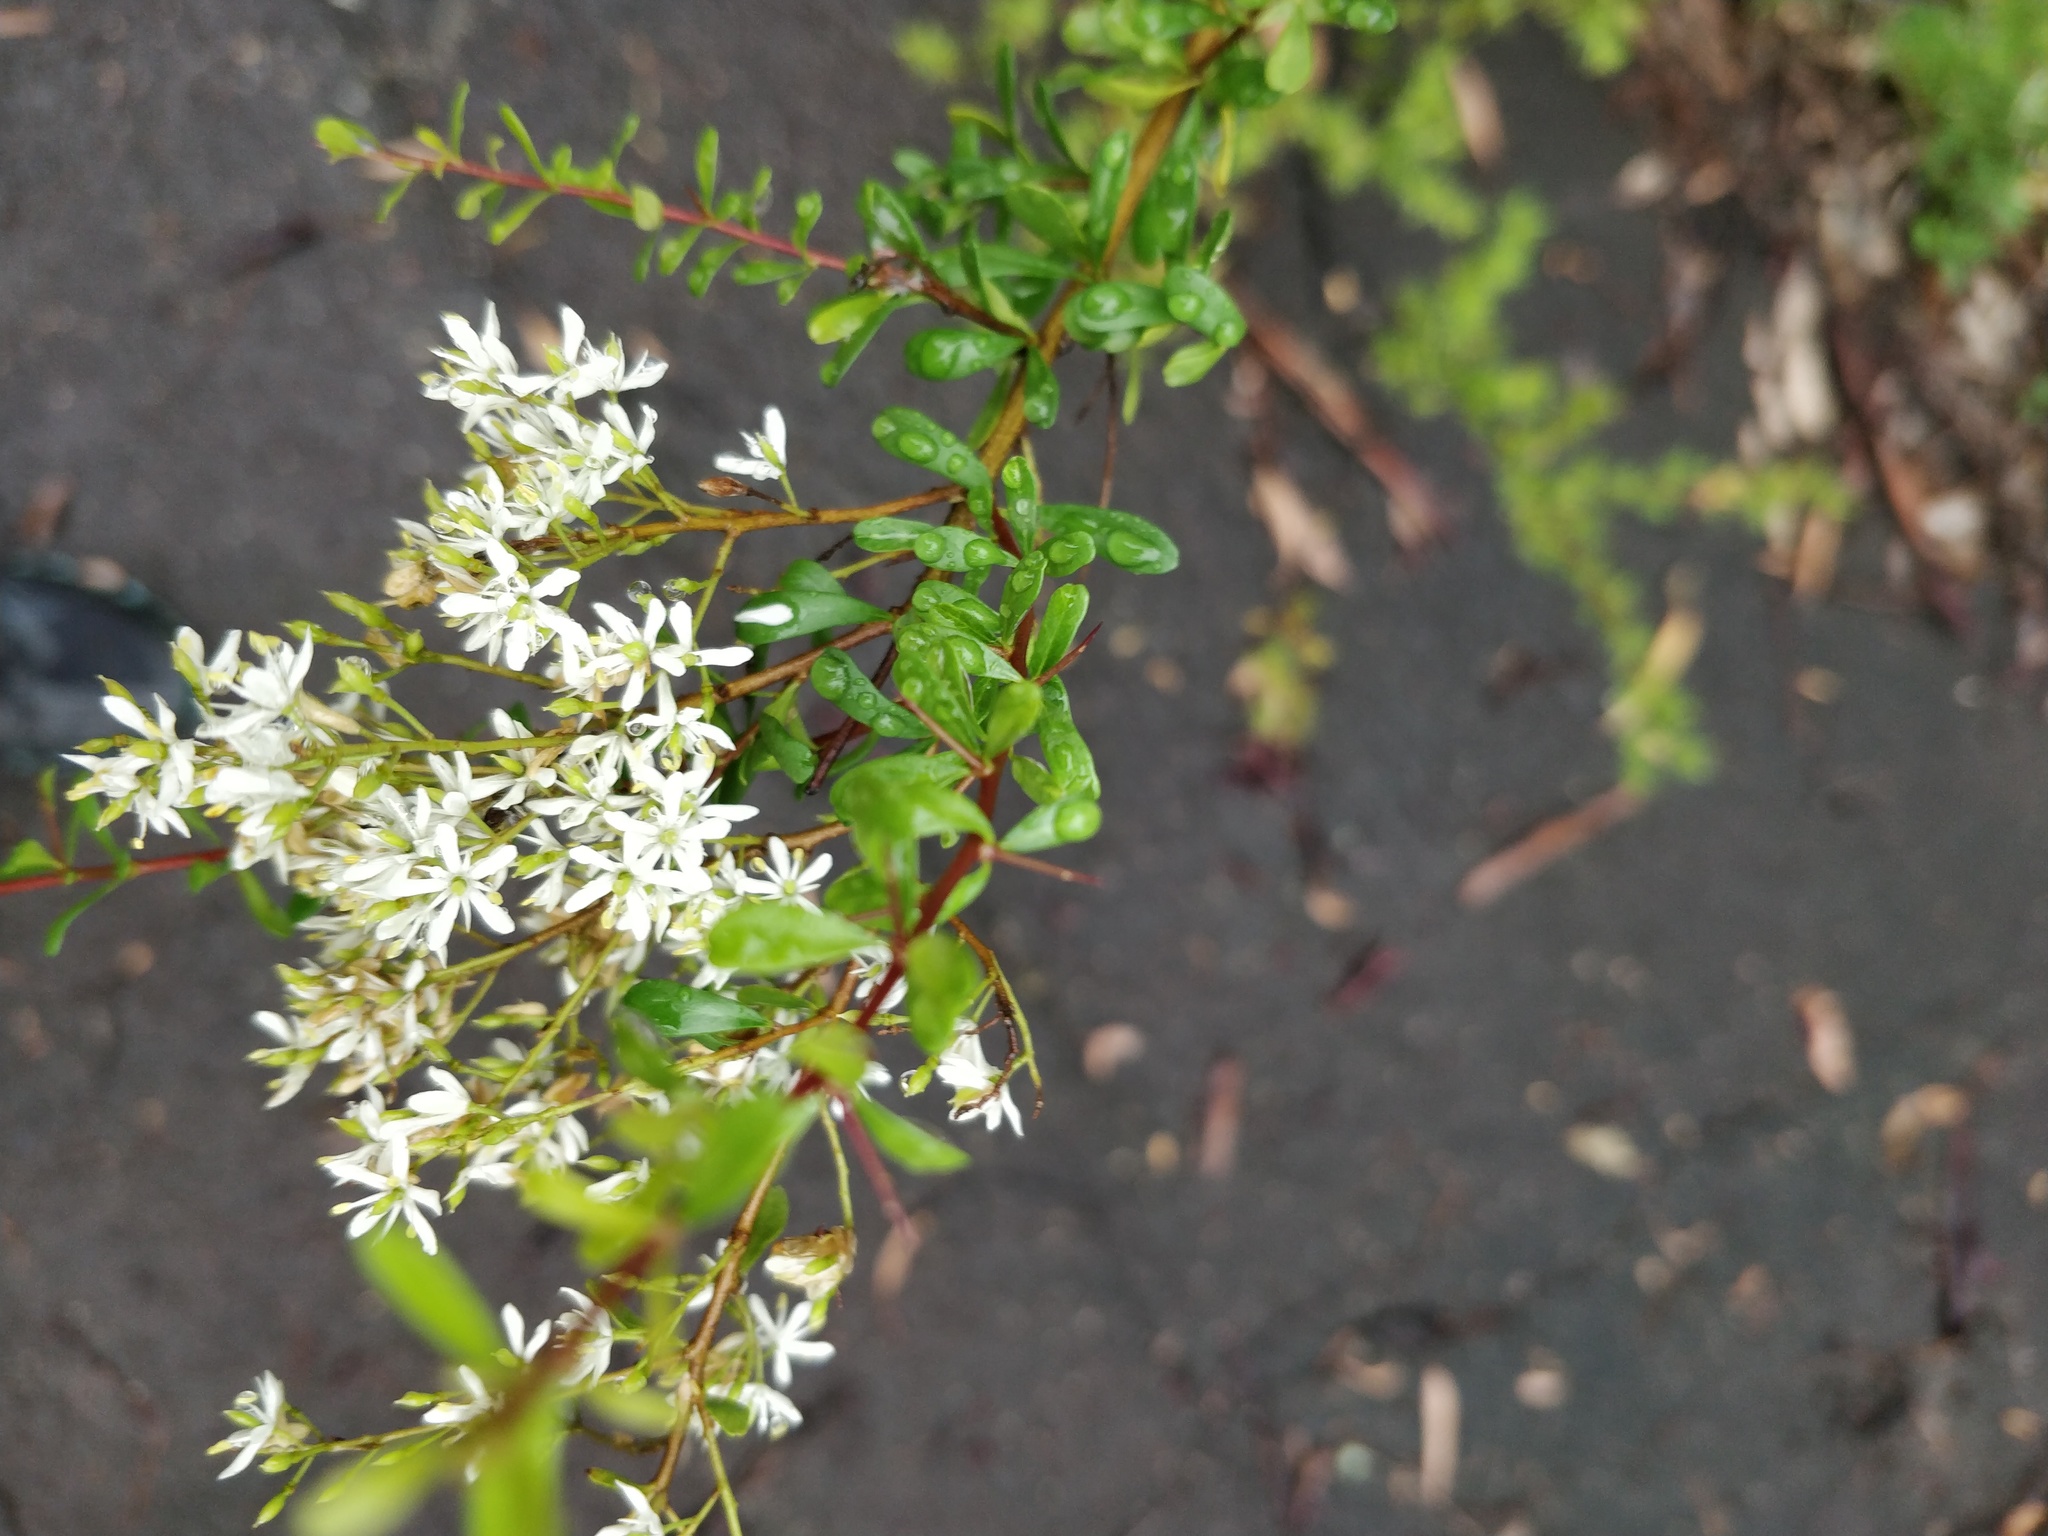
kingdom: Plantae
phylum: Tracheophyta
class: Magnoliopsida
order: Apiales
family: Pittosporaceae
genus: Bursaria
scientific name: Bursaria spinosa
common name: Australian blackthorn
